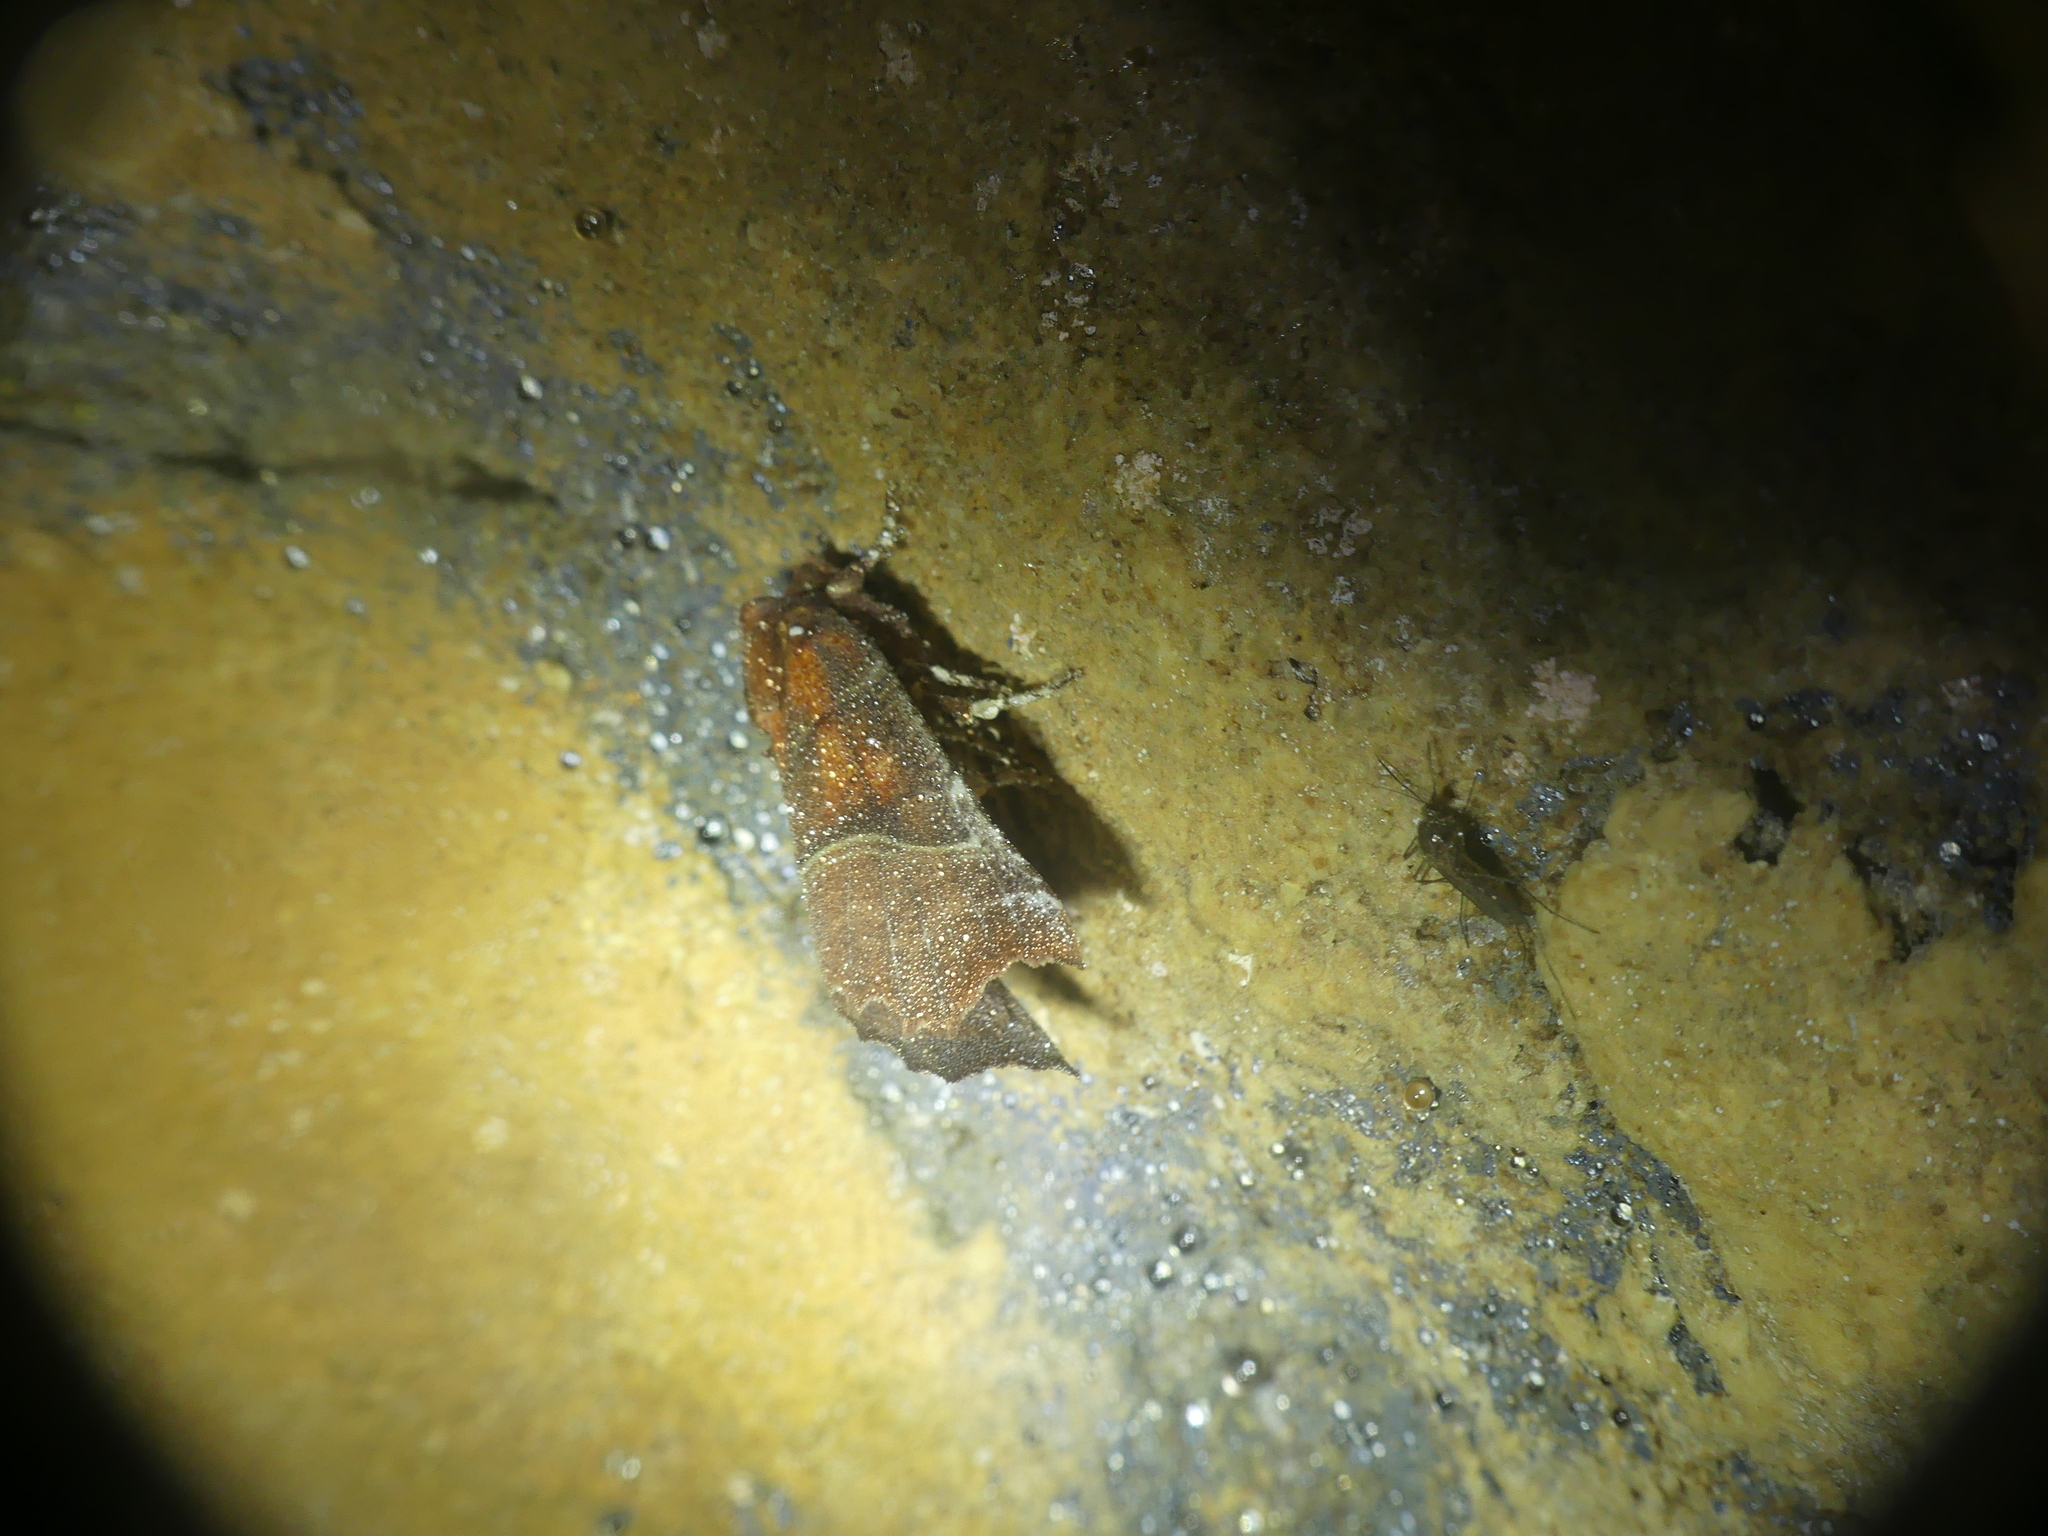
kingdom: Animalia
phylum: Arthropoda
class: Insecta
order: Lepidoptera
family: Erebidae
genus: Scoliopteryx
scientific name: Scoliopteryx libatrix
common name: Herald
